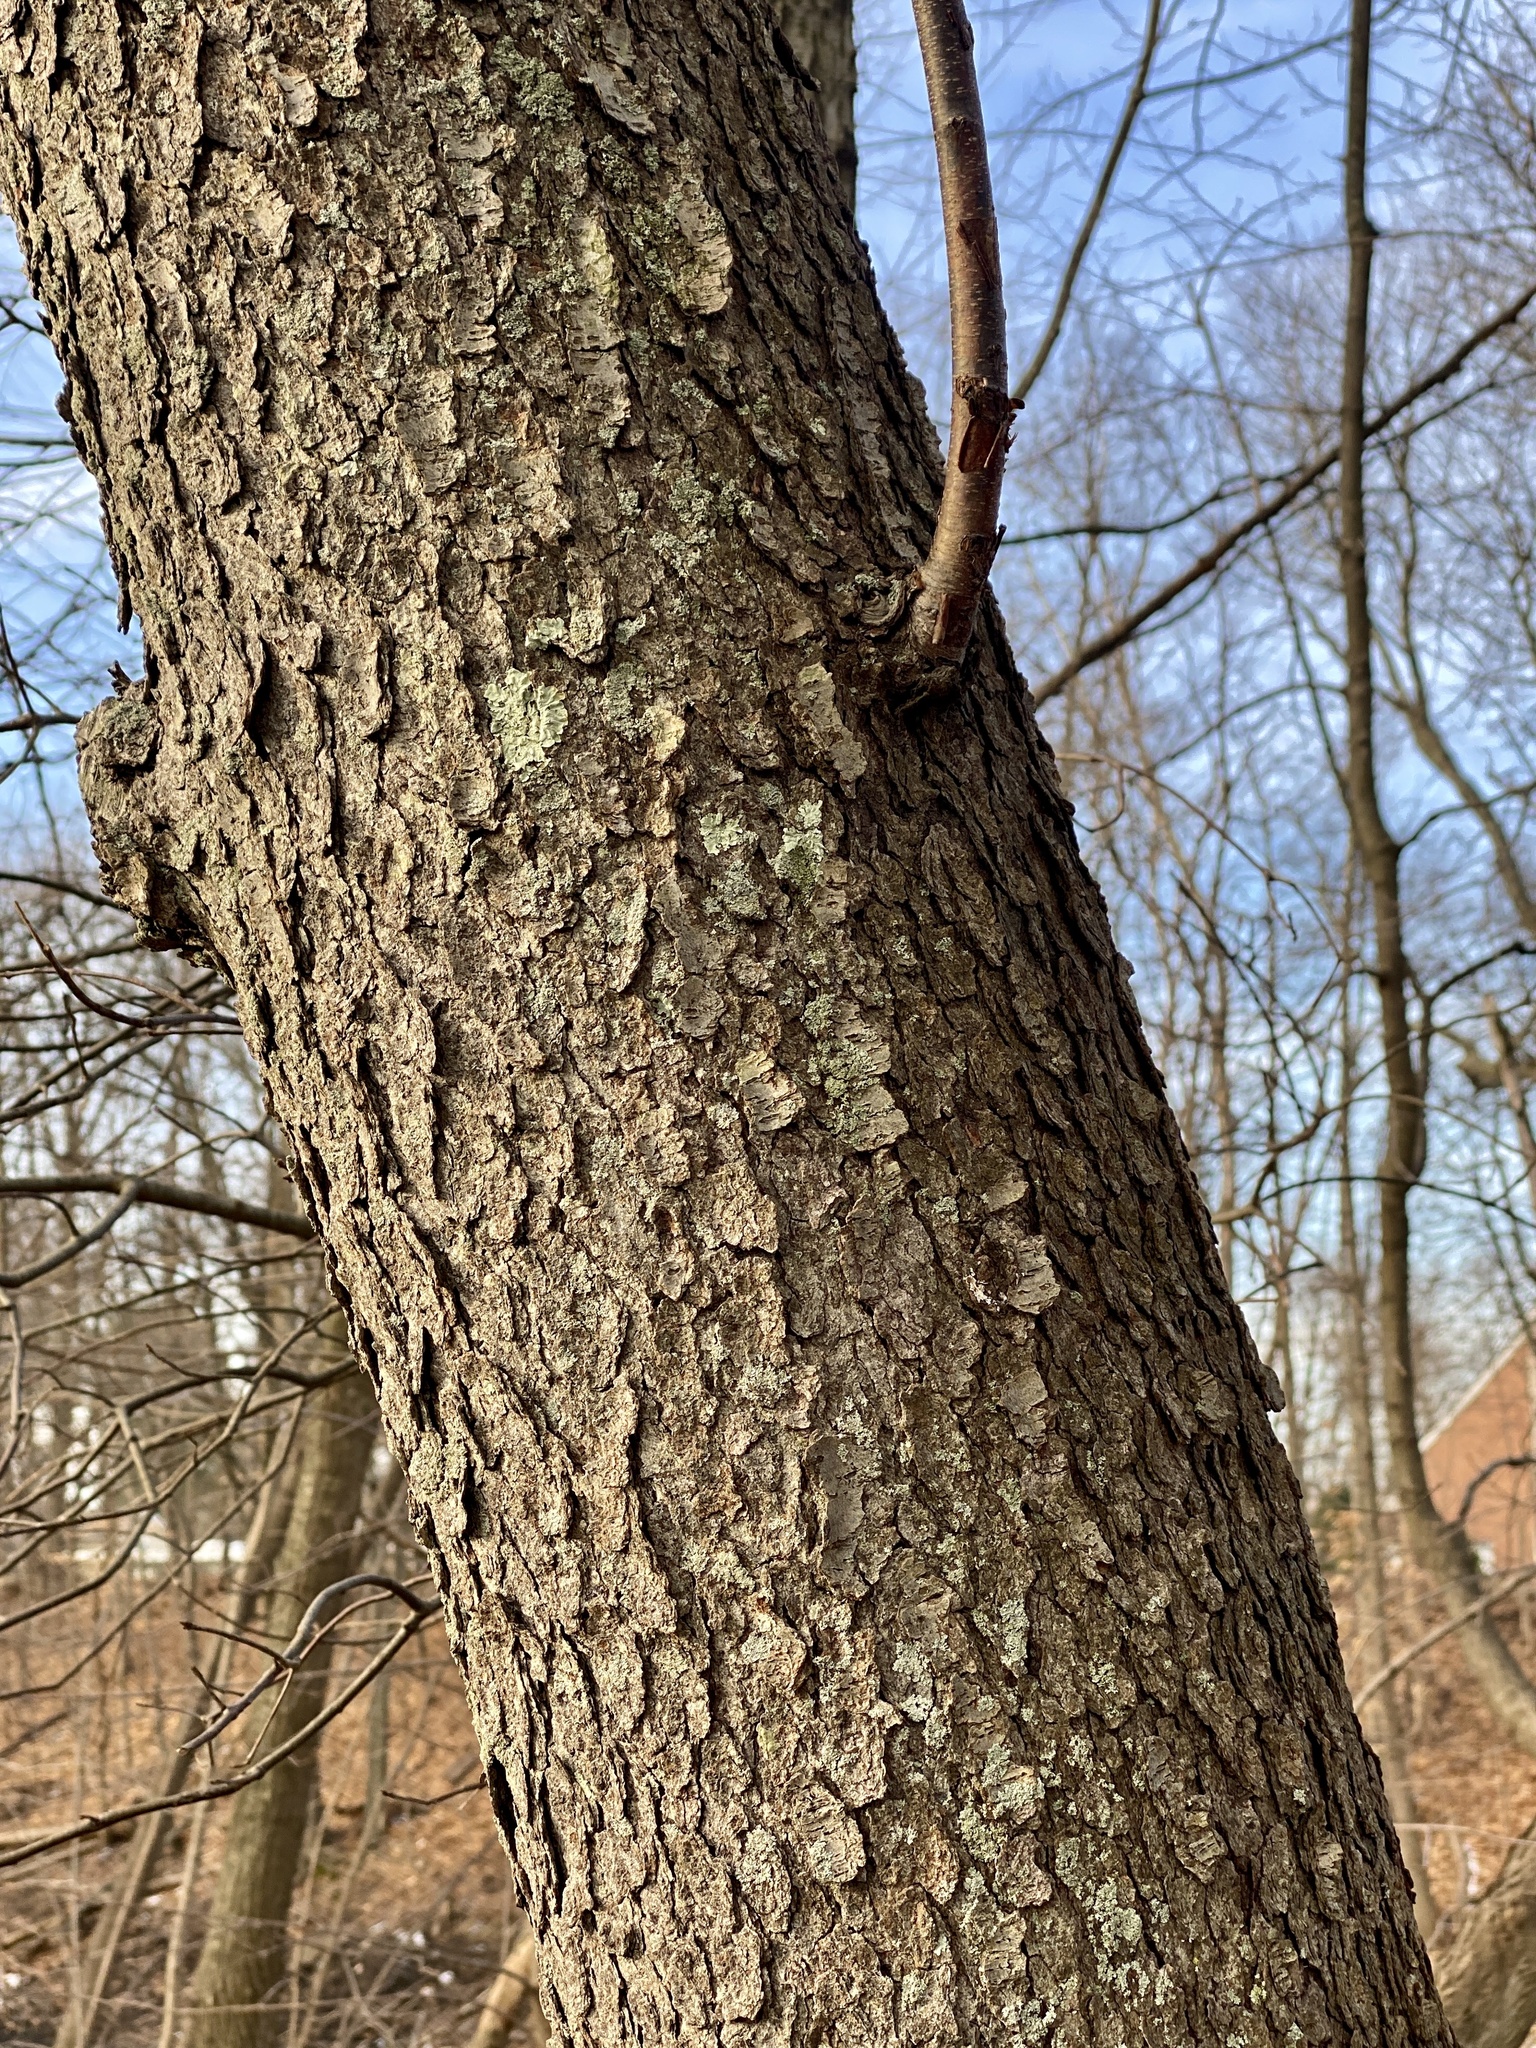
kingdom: Plantae
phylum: Tracheophyta
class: Magnoliopsida
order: Rosales
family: Rosaceae
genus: Prunus
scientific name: Prunus serotina
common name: Black cherry
